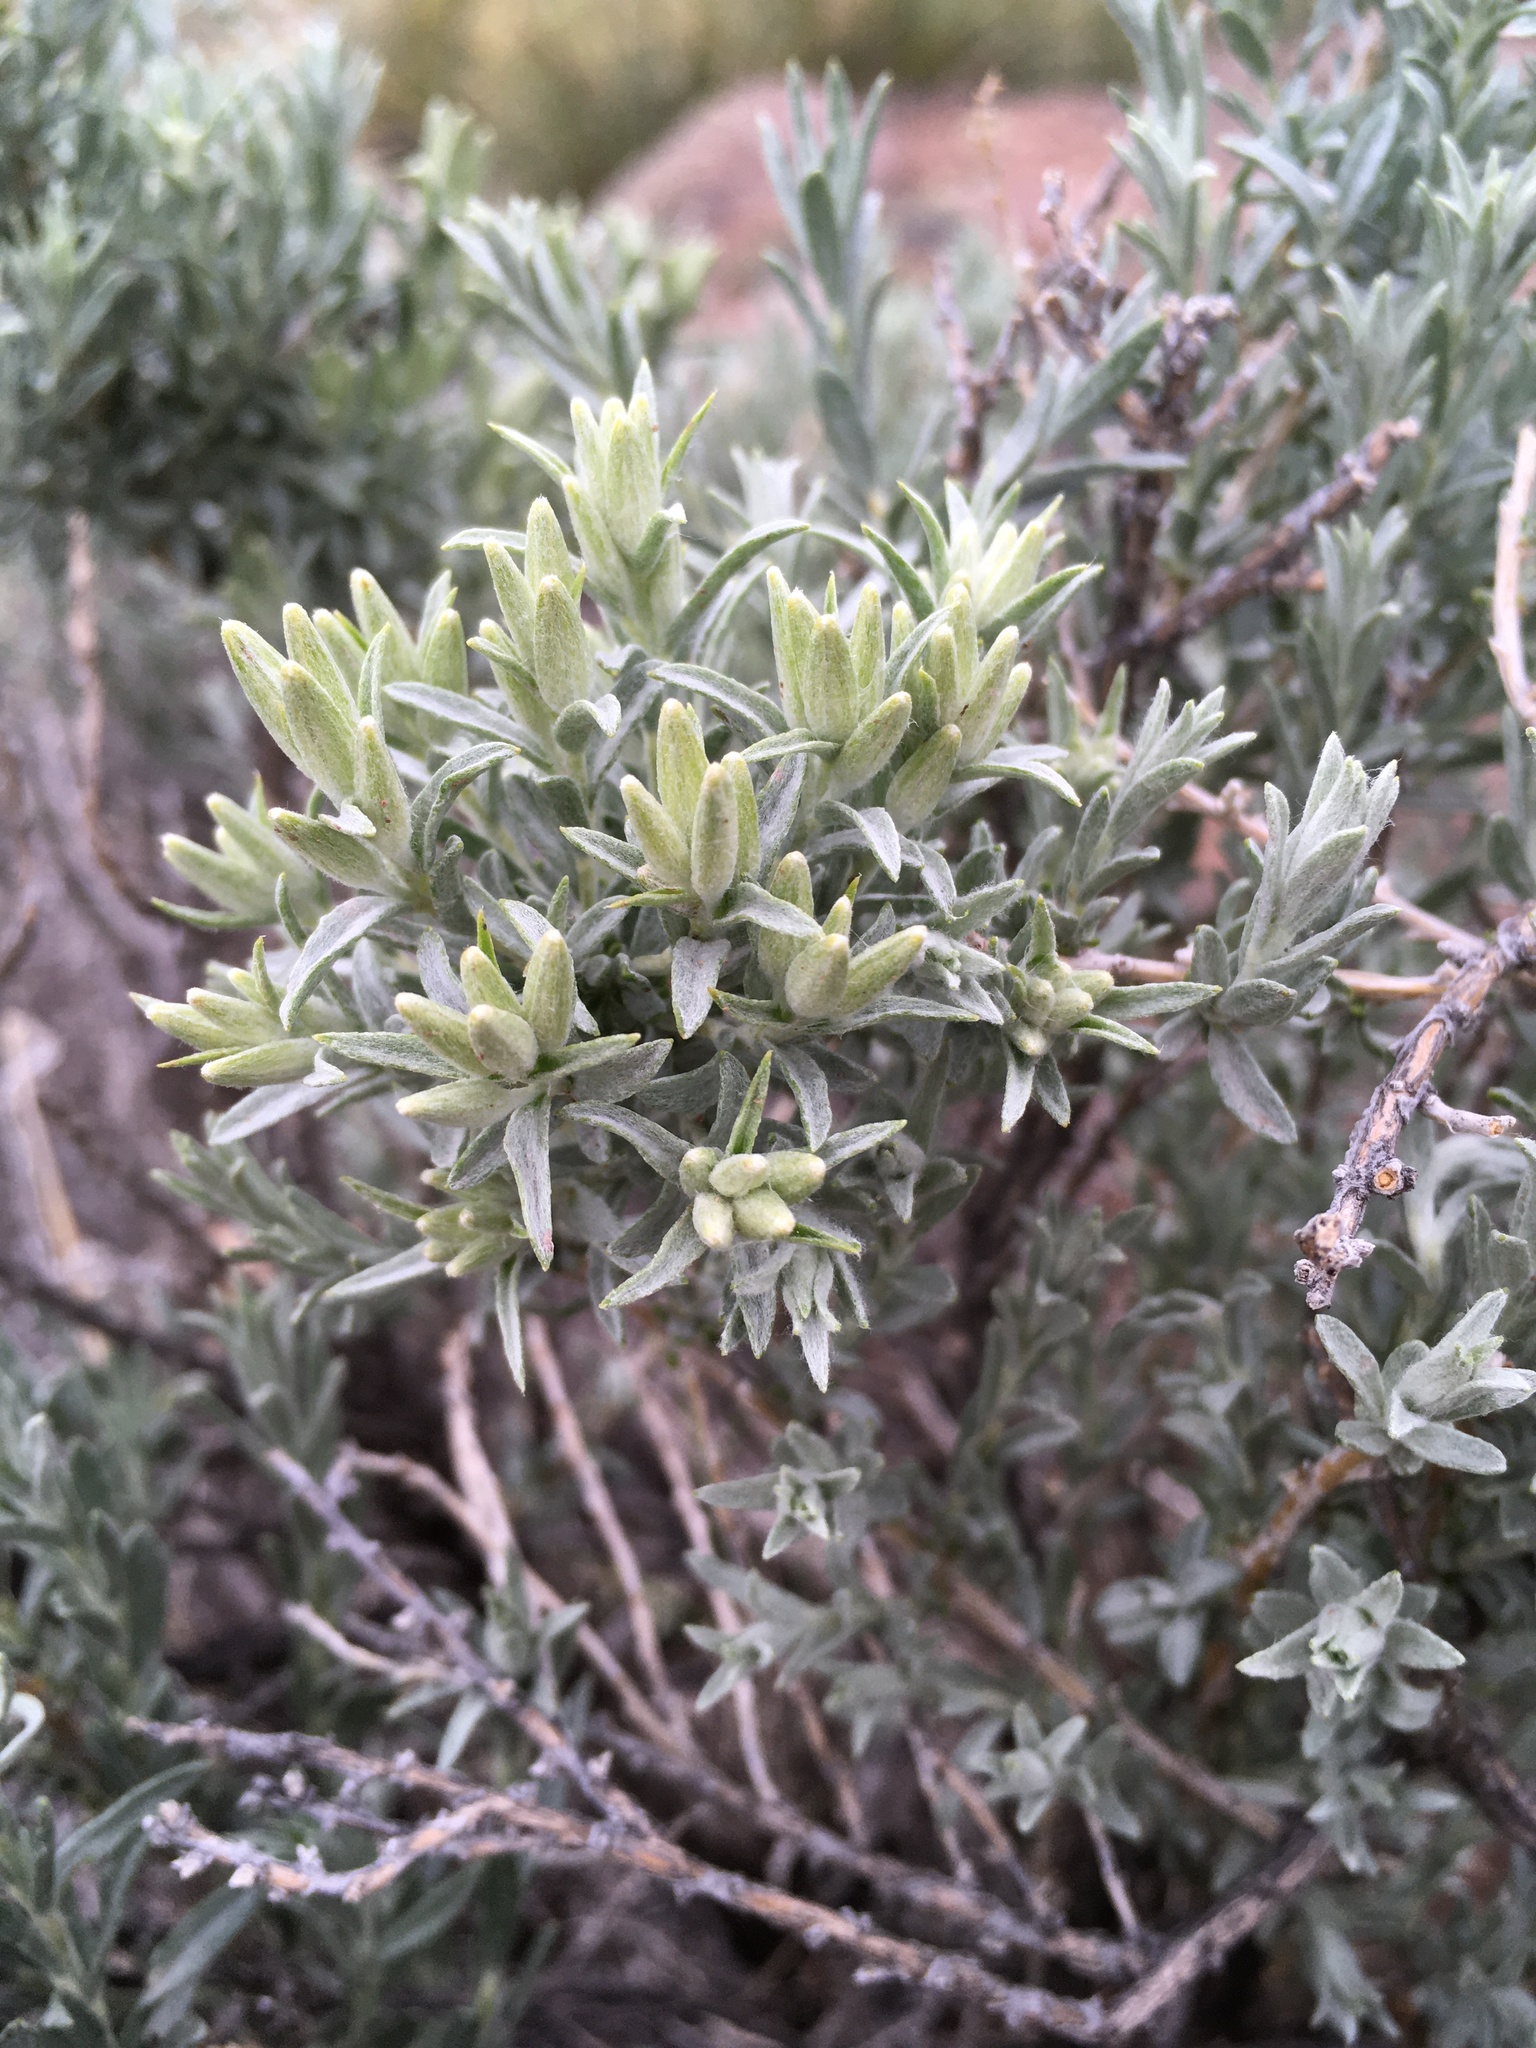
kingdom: Plantae
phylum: Tracheophyta
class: Magnoliopsida
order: Asterales
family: Asteraceae
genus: Tetradymia
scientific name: Tetradymia canescens
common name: Spineless horsebrush
